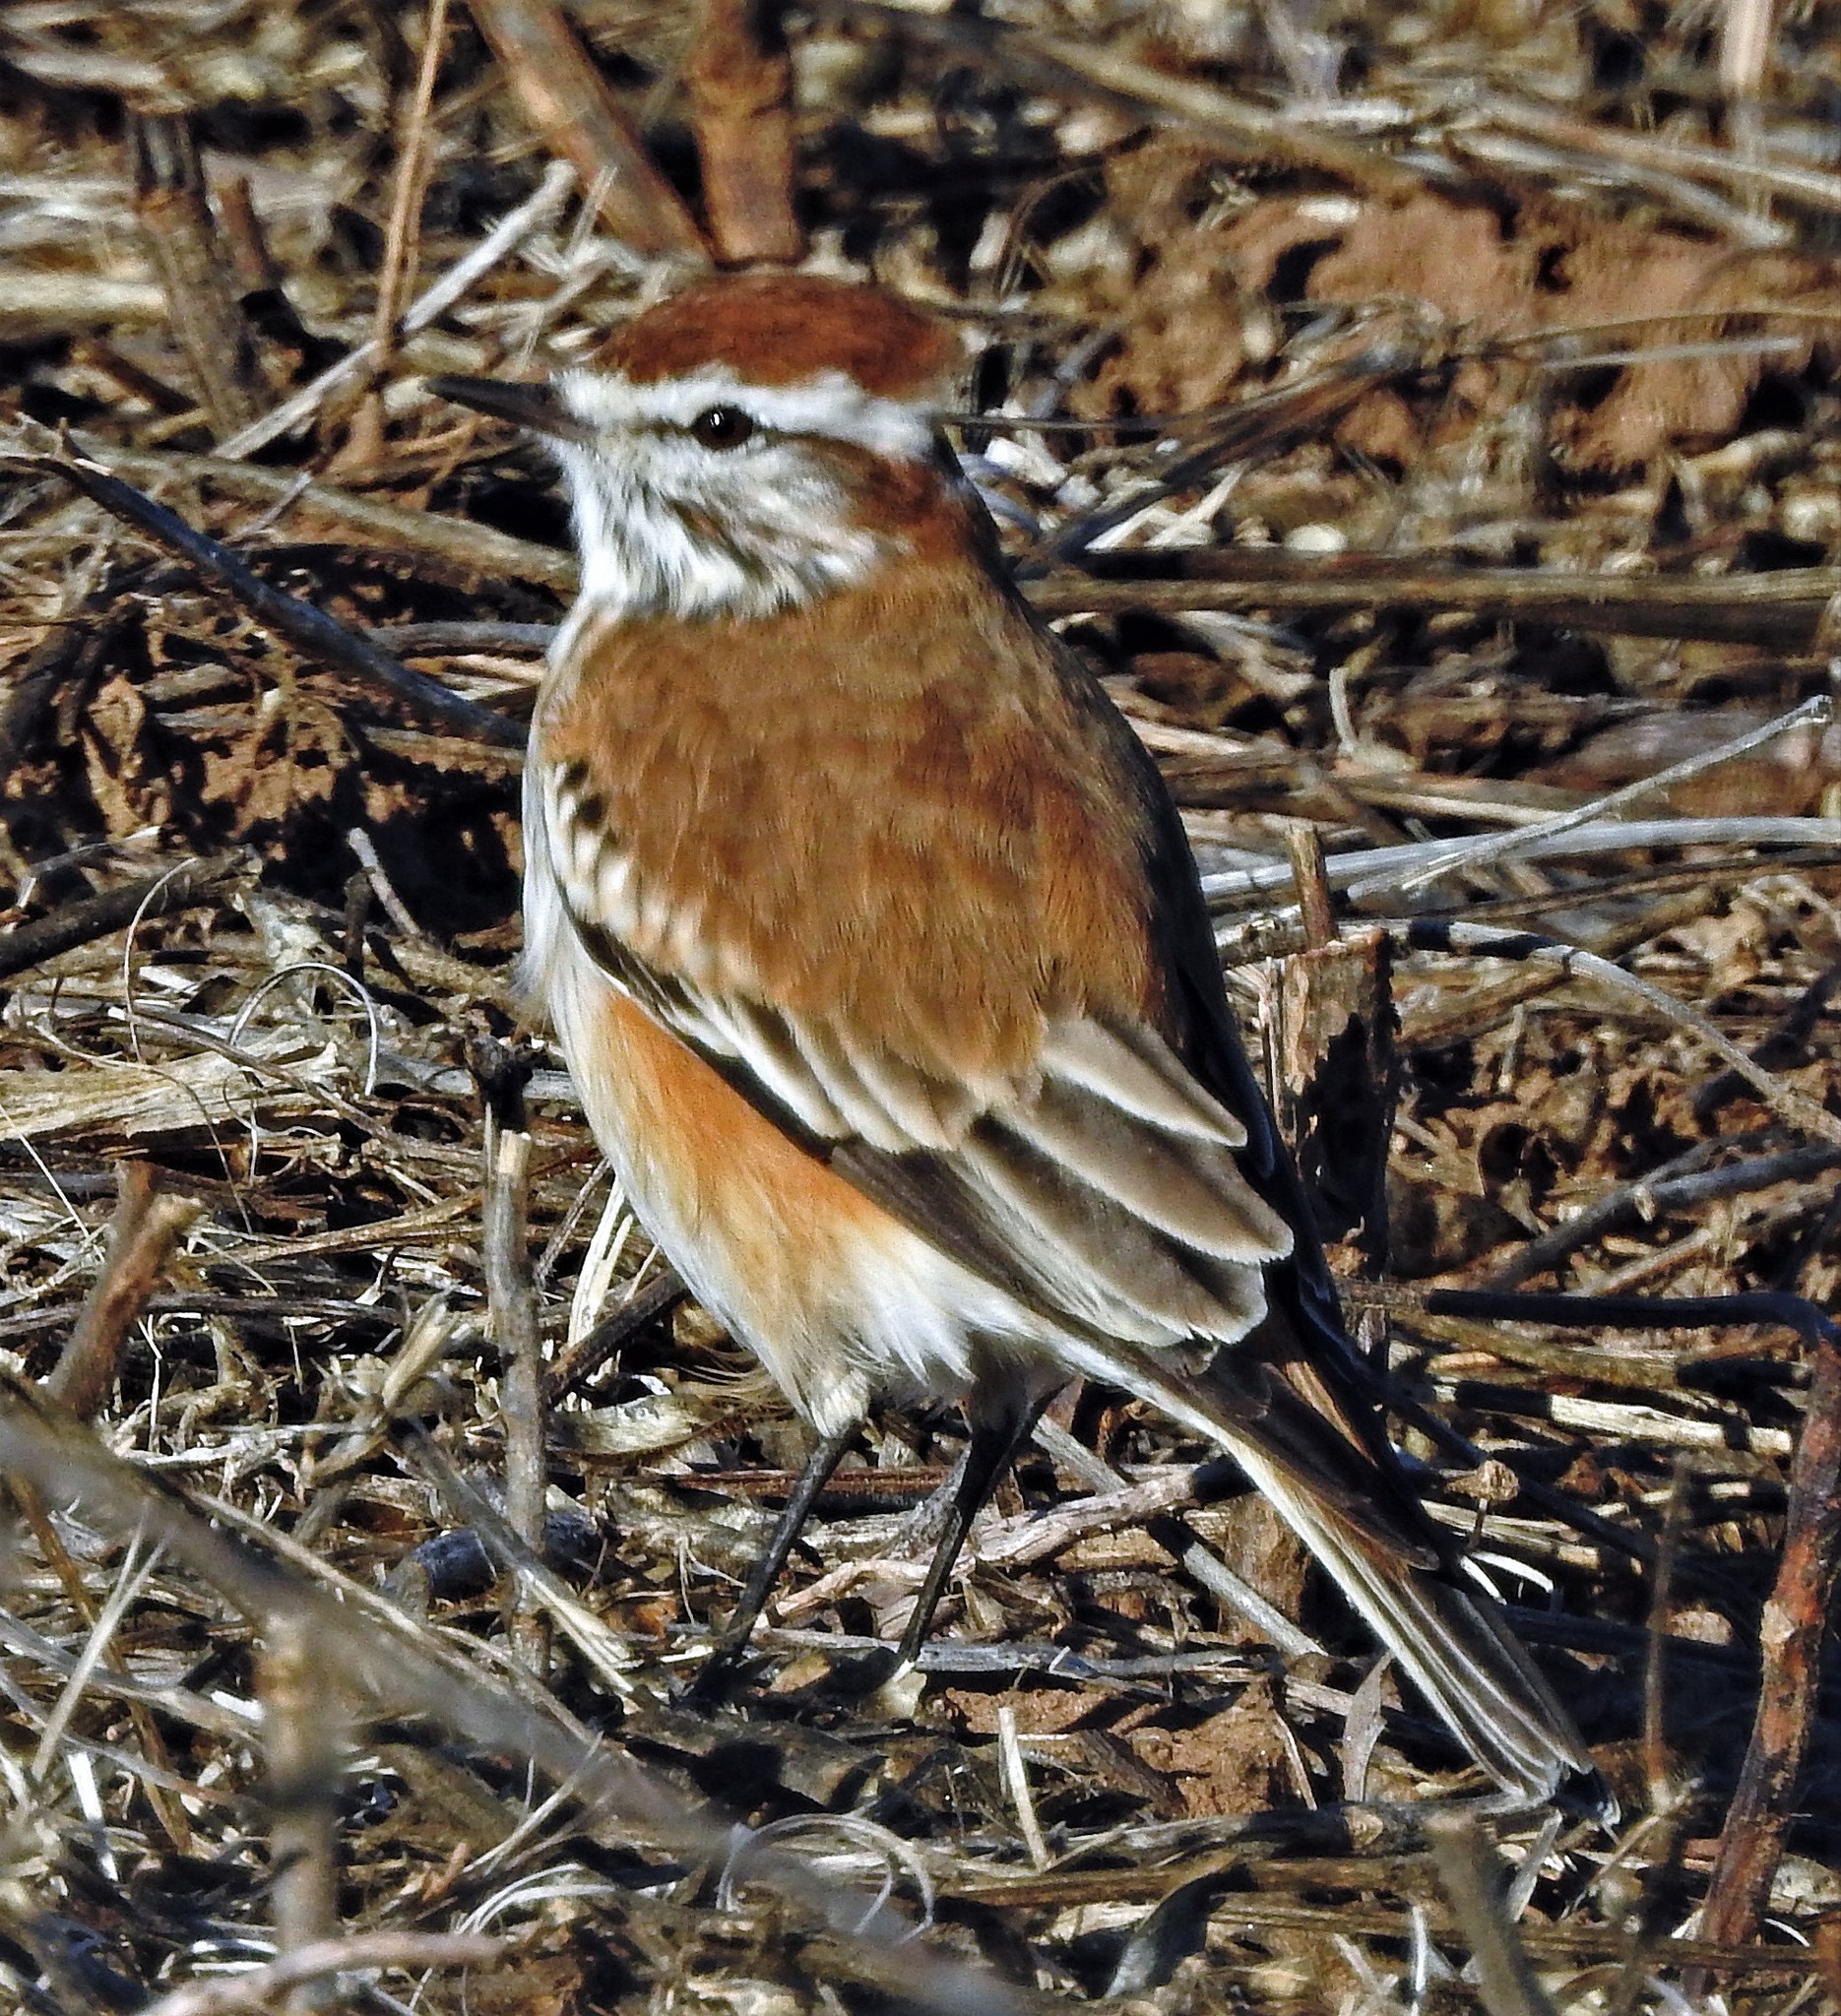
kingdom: Animalia
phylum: Chordata
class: Aves
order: Passeriformes
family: Tyrannidae
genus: Xolmis
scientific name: Xolmis rubetra
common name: Rusty-backed monjita
